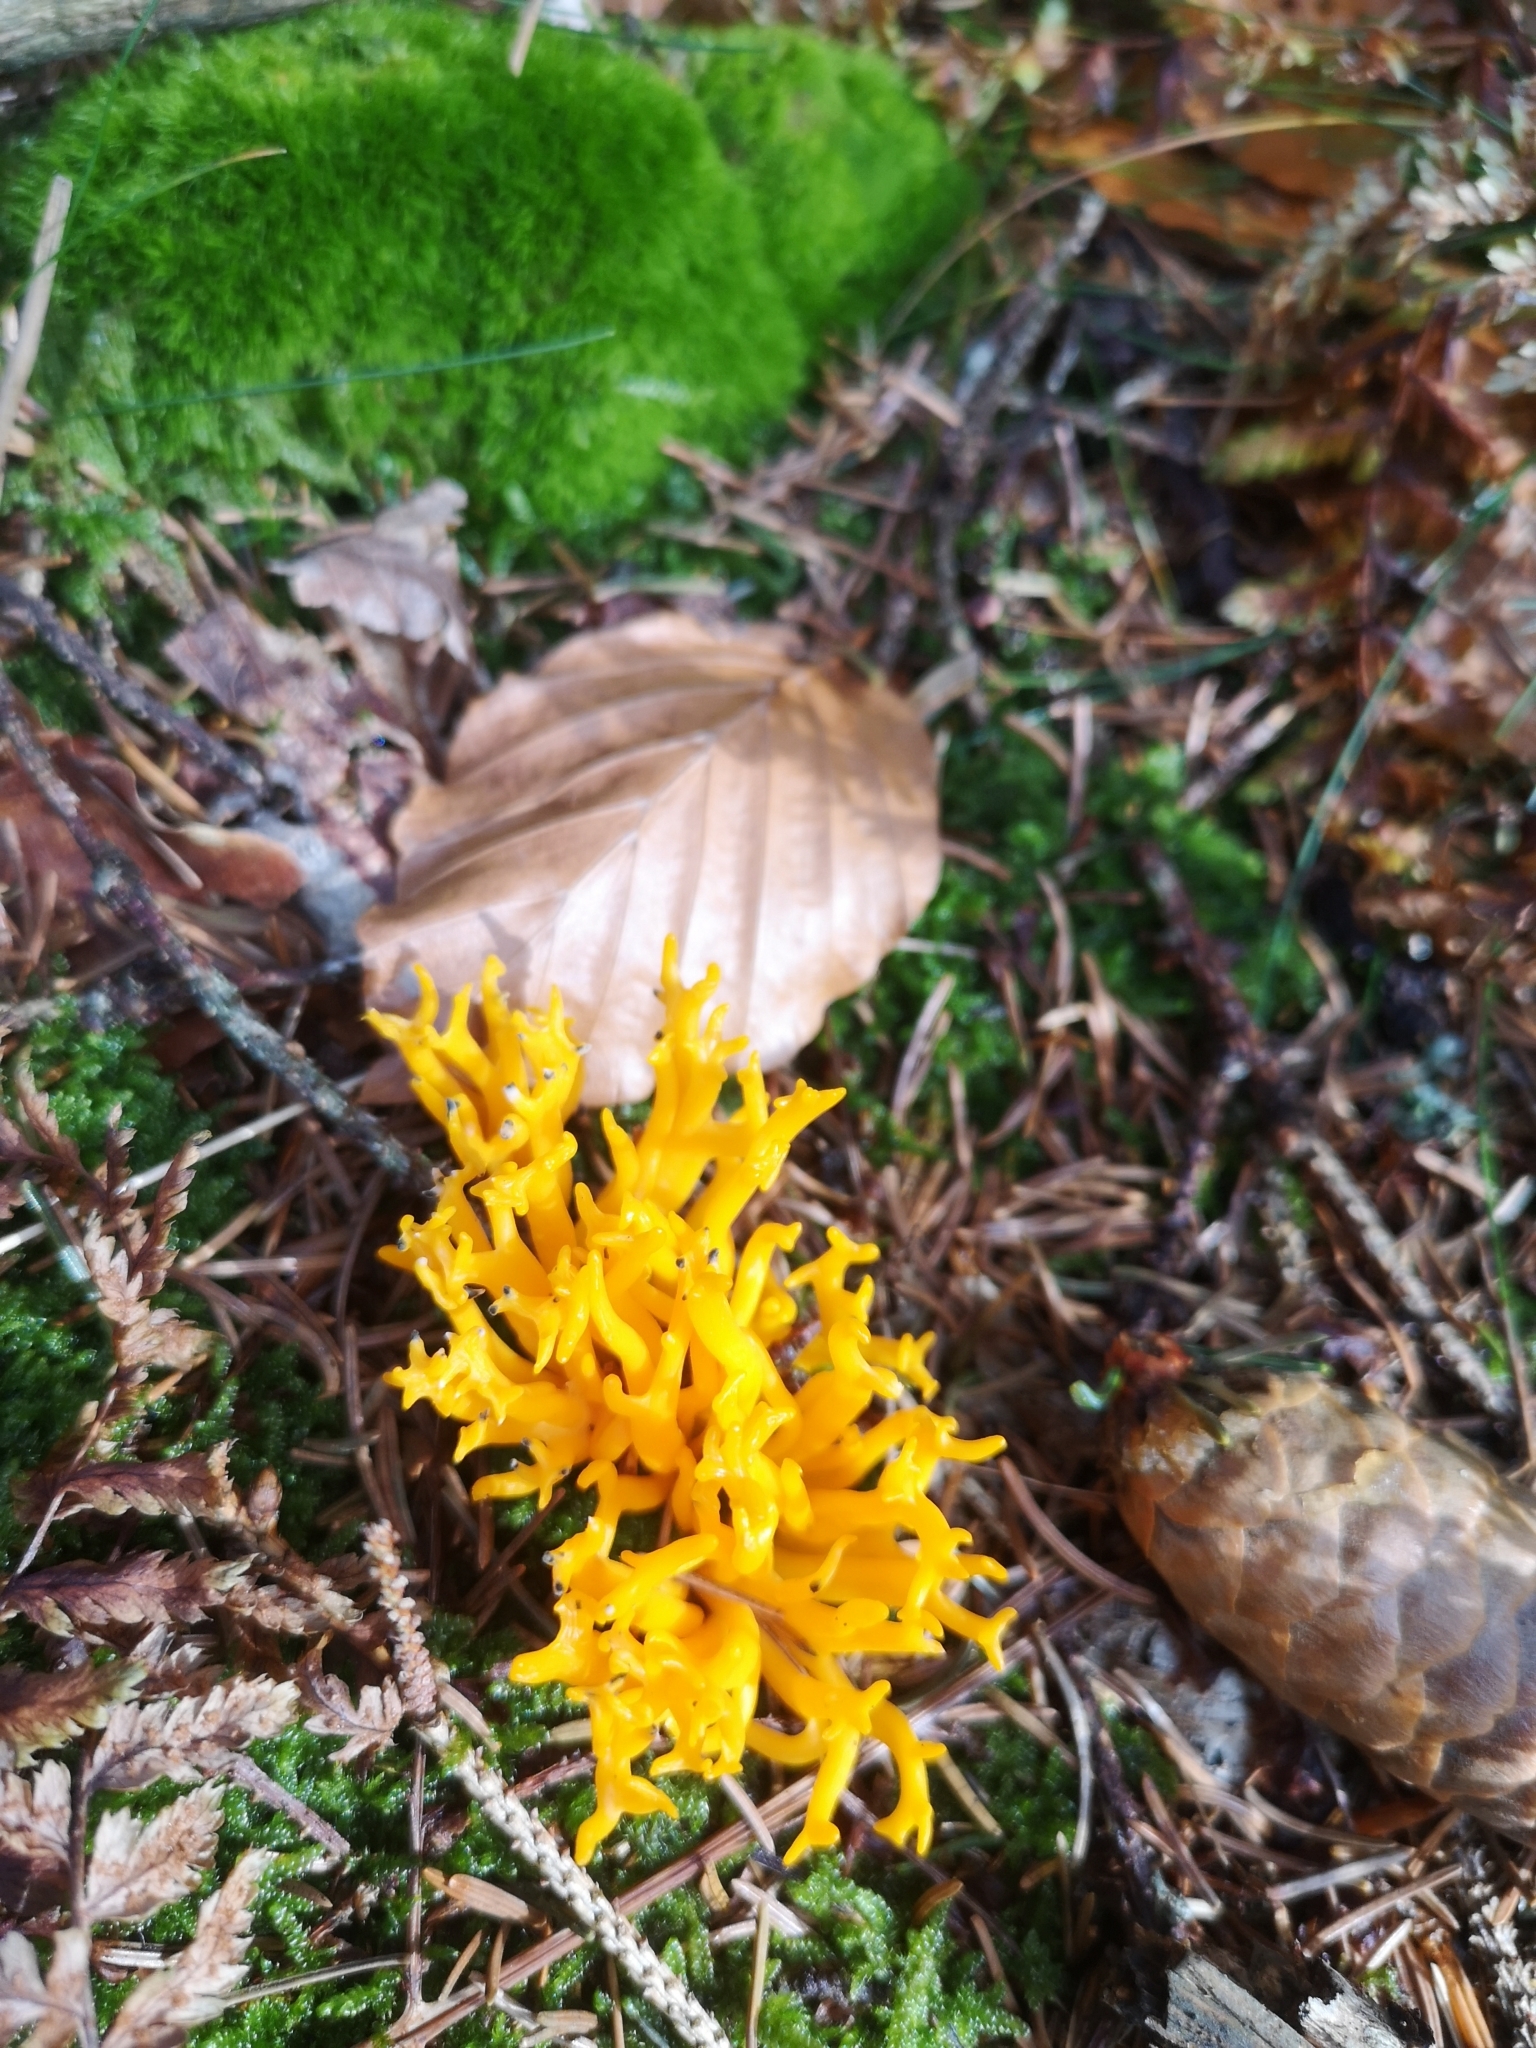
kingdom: Fungi
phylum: Basidiomycota
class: Dacrymycetes
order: Dacrymycetales
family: Dacrymycetaceae
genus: Calocera
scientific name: Calocera viscosa
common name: Yellow stagshorn
